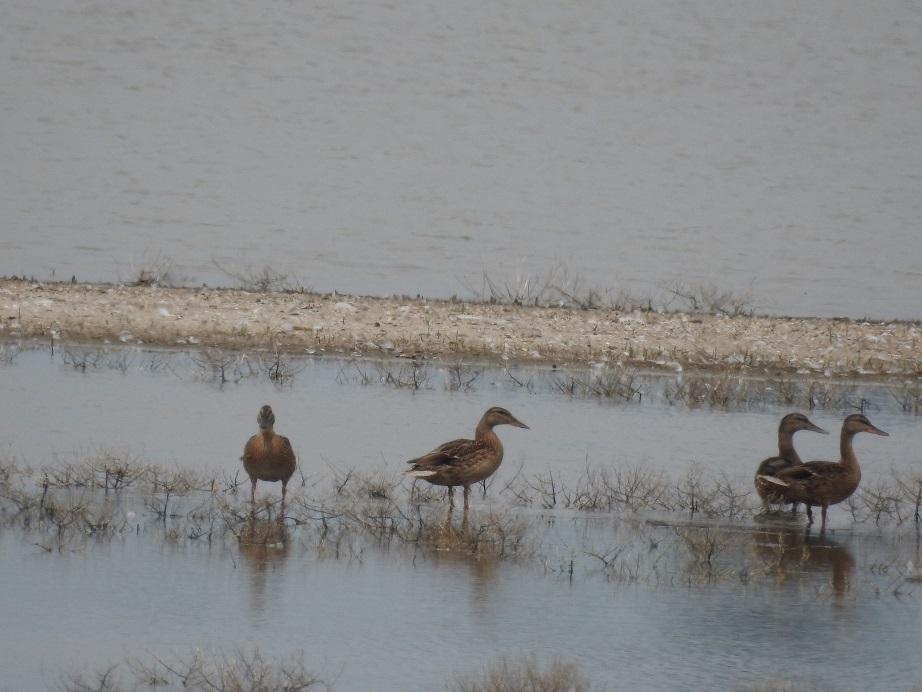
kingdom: Animalia
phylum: Chordata
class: Aves
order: Anseriformes
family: Anatidae
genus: Anas
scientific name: Anas platyrhynchos
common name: Mallard
